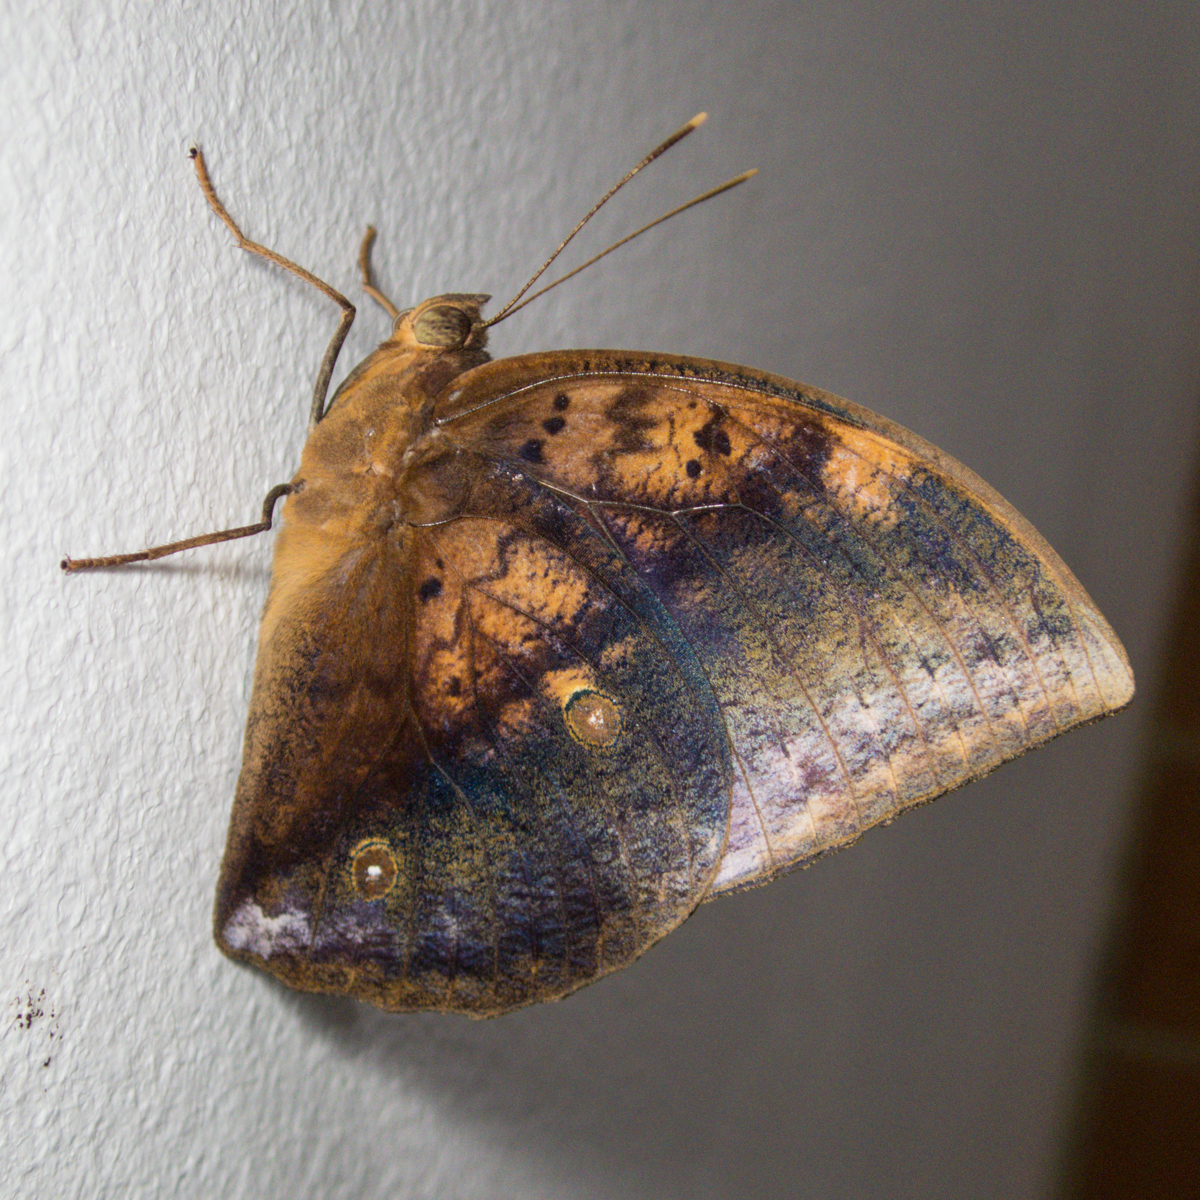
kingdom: Animalia
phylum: Arthropoda
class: Insecta
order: Lepidoptera
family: Nymphalidae
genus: Discophora
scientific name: Discophora timora
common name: Great duffer
